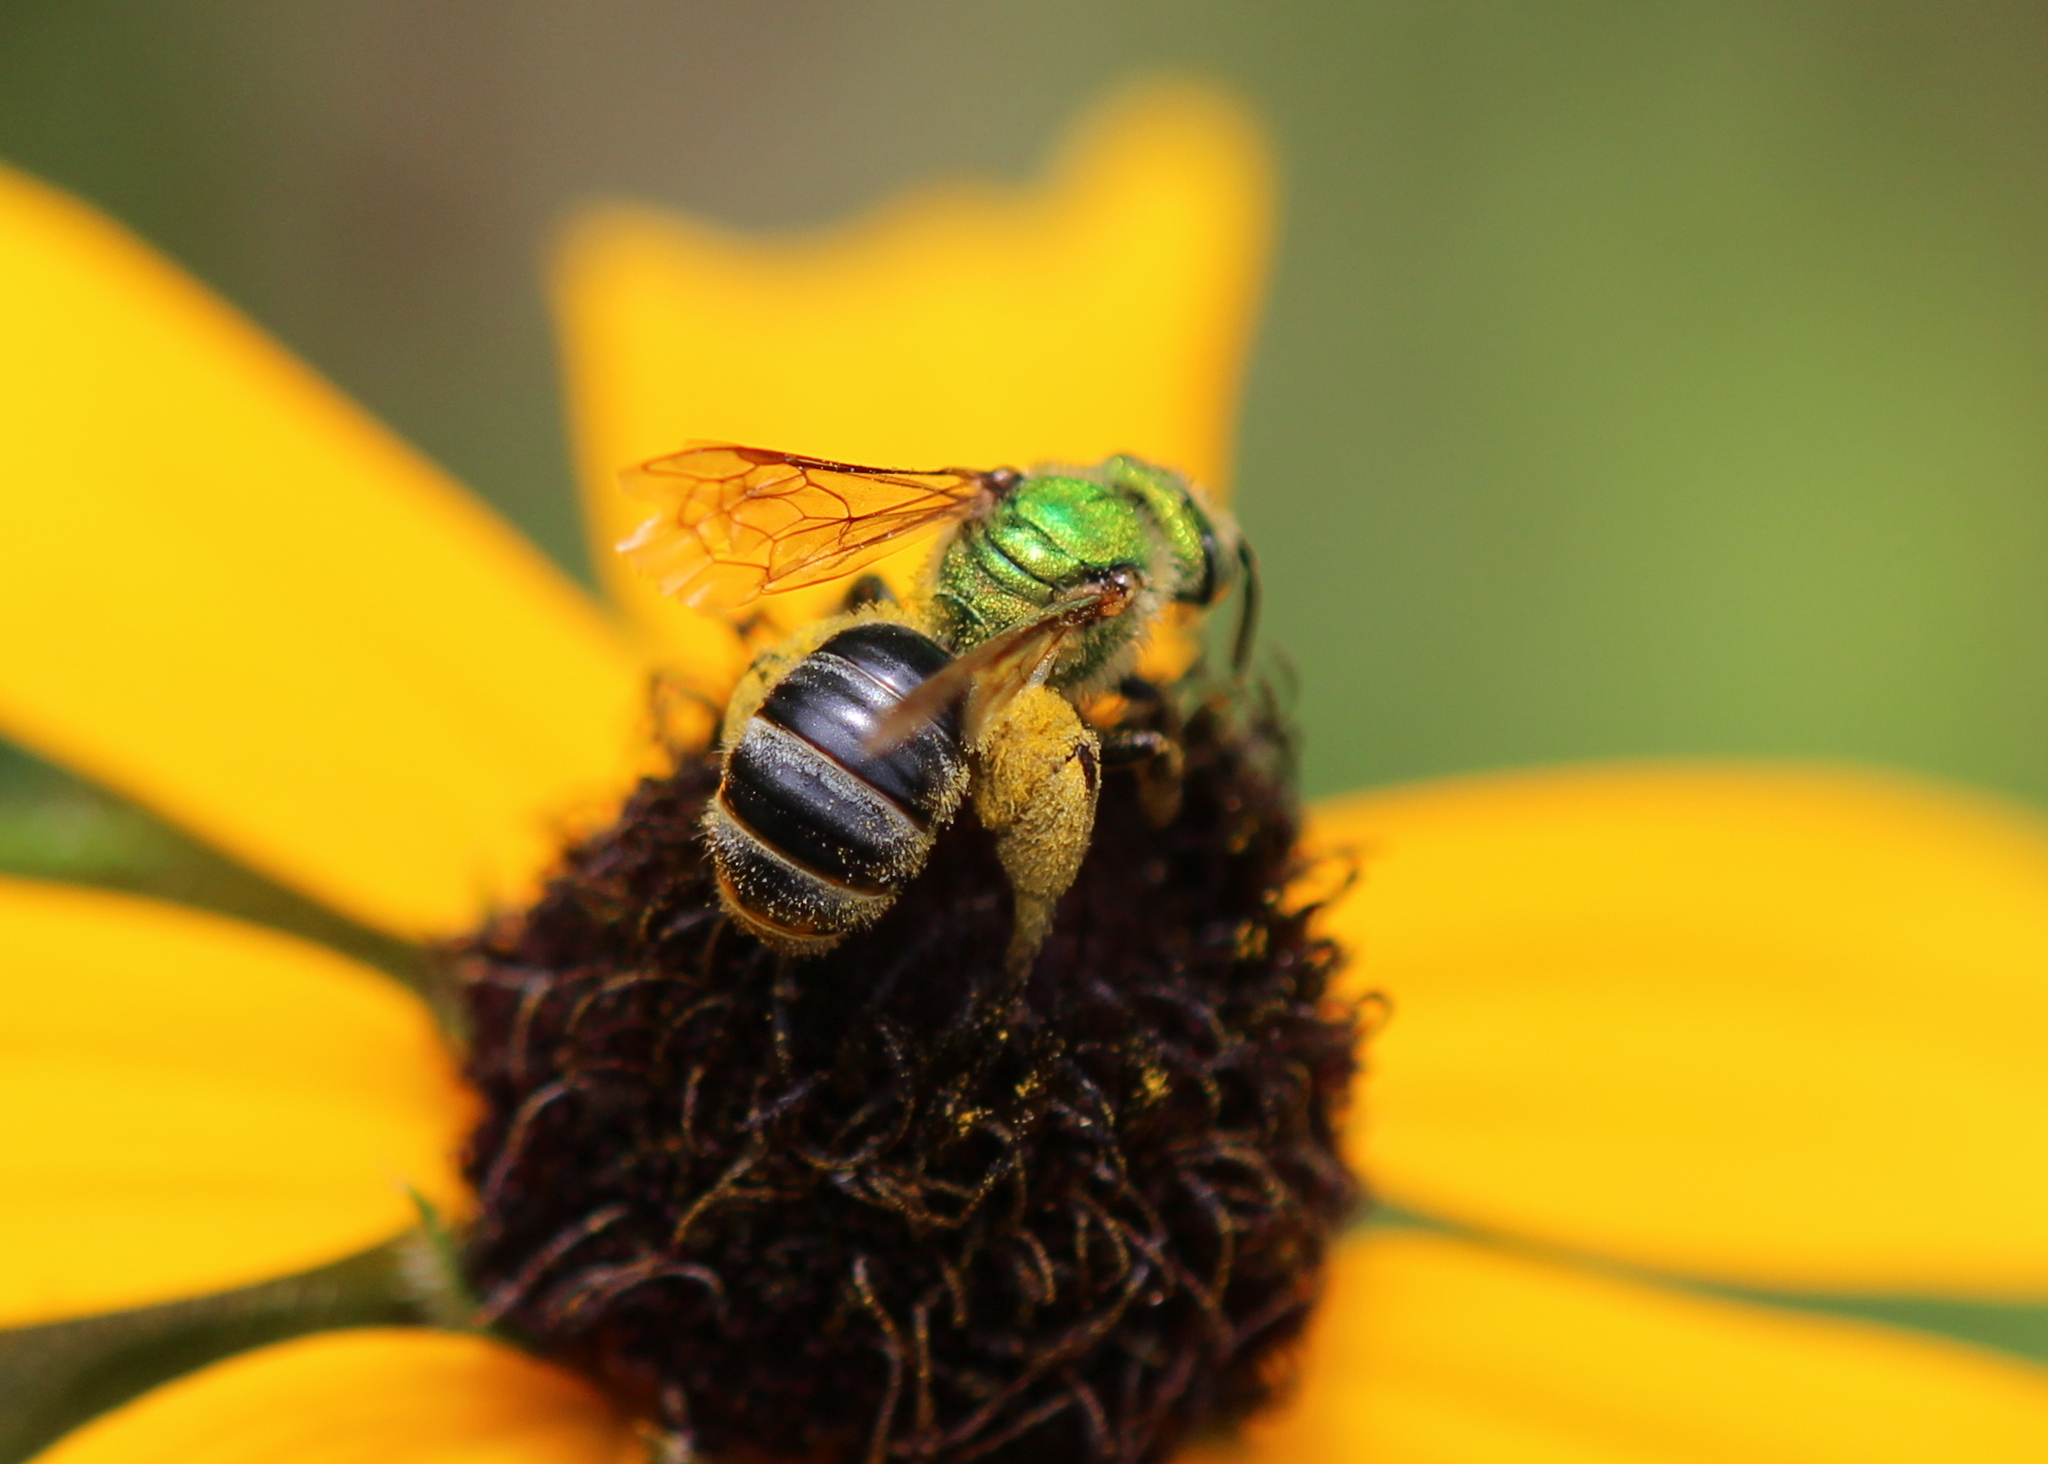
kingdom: Animalia
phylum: Arthropoda
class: Insecta
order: Hymenoptera
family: Halictidae
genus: Agapostemon
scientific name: Agapostemon virescens
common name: Bicolored striped sweat bee
